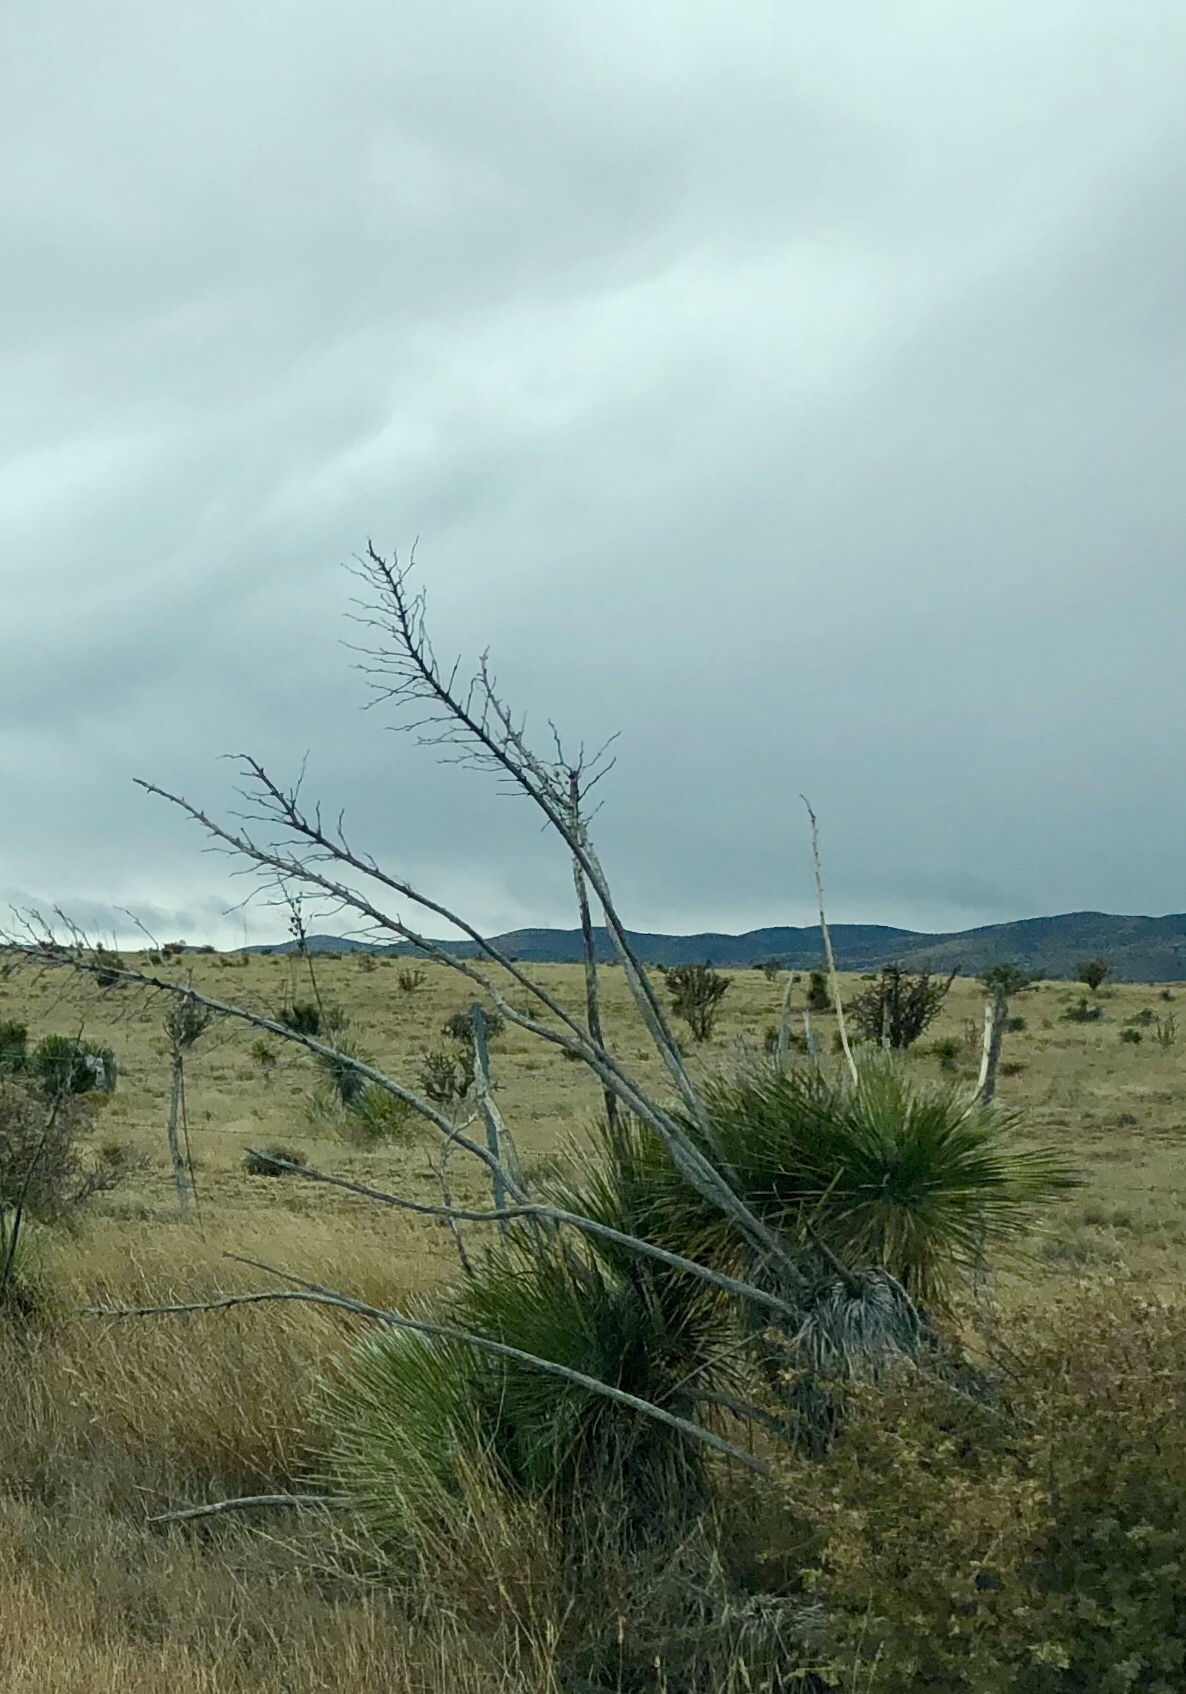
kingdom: Plantae
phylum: Tracheophyta
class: Liliopsida
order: Asparagales
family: Asparagaceae
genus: Yucca
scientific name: Yucca elata
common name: Palmella
